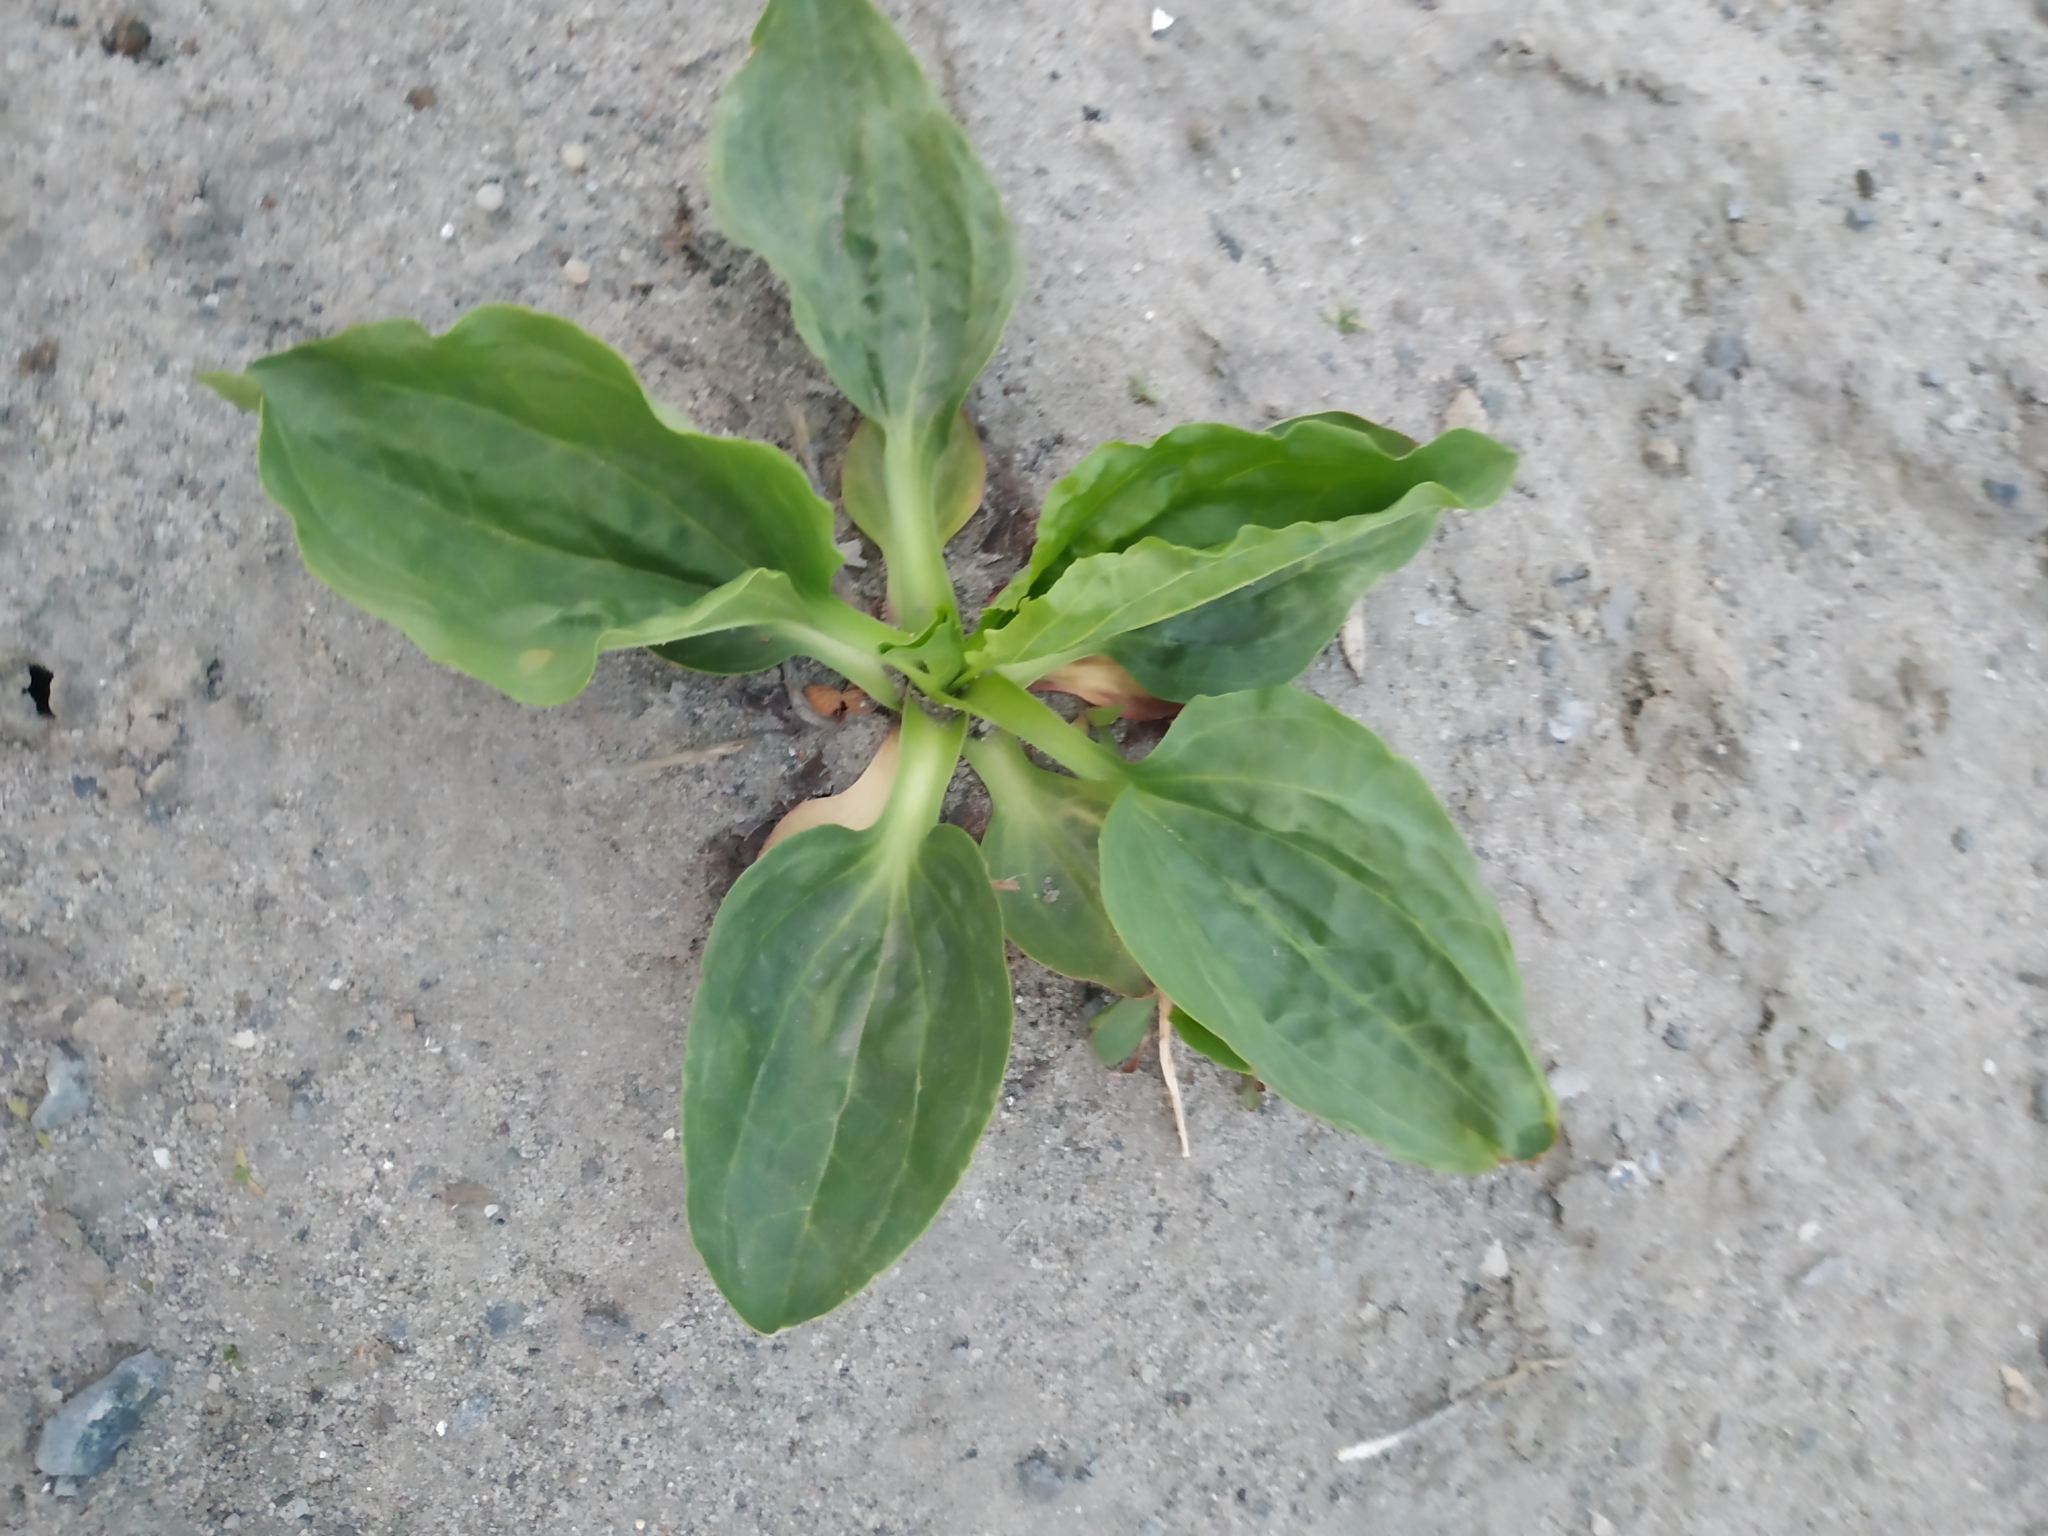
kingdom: Plantae
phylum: Tracheophyta
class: Magnoliopsida
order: Lamiales
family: Plantaginaceae
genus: Plantago
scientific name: Plantago major
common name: Common plantain
